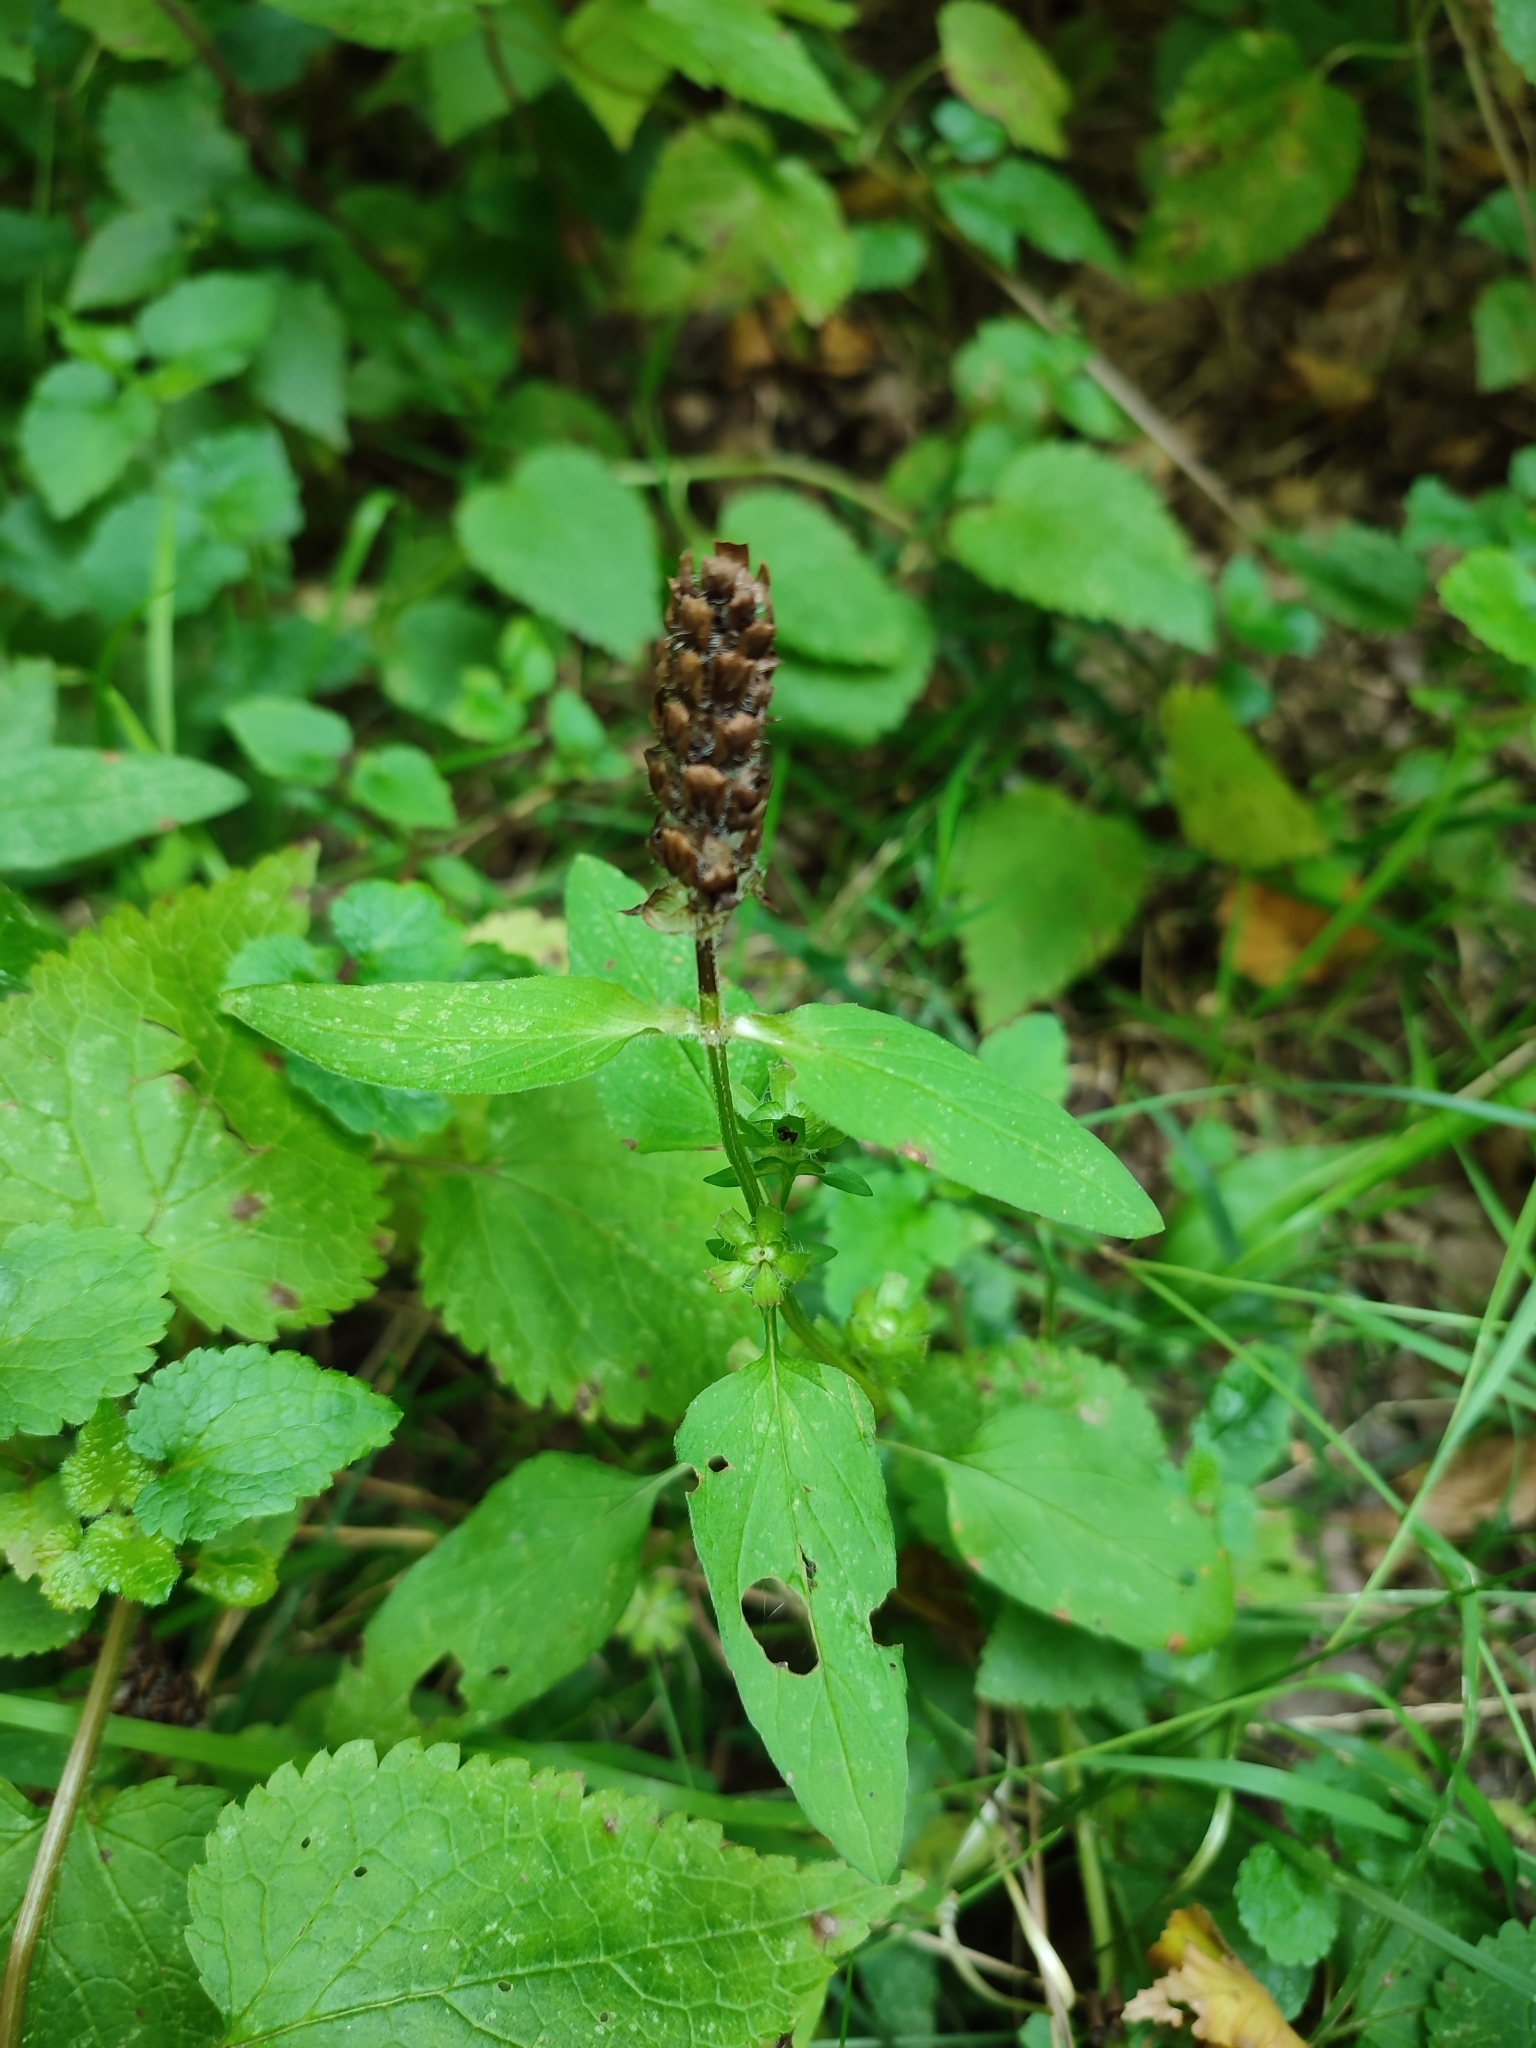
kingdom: Plantae
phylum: Tracheophyta
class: Magnoliopsida
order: Lamiales
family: Lamiaceae
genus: Prunella
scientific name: Prunella vulgaris
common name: Heal-all
